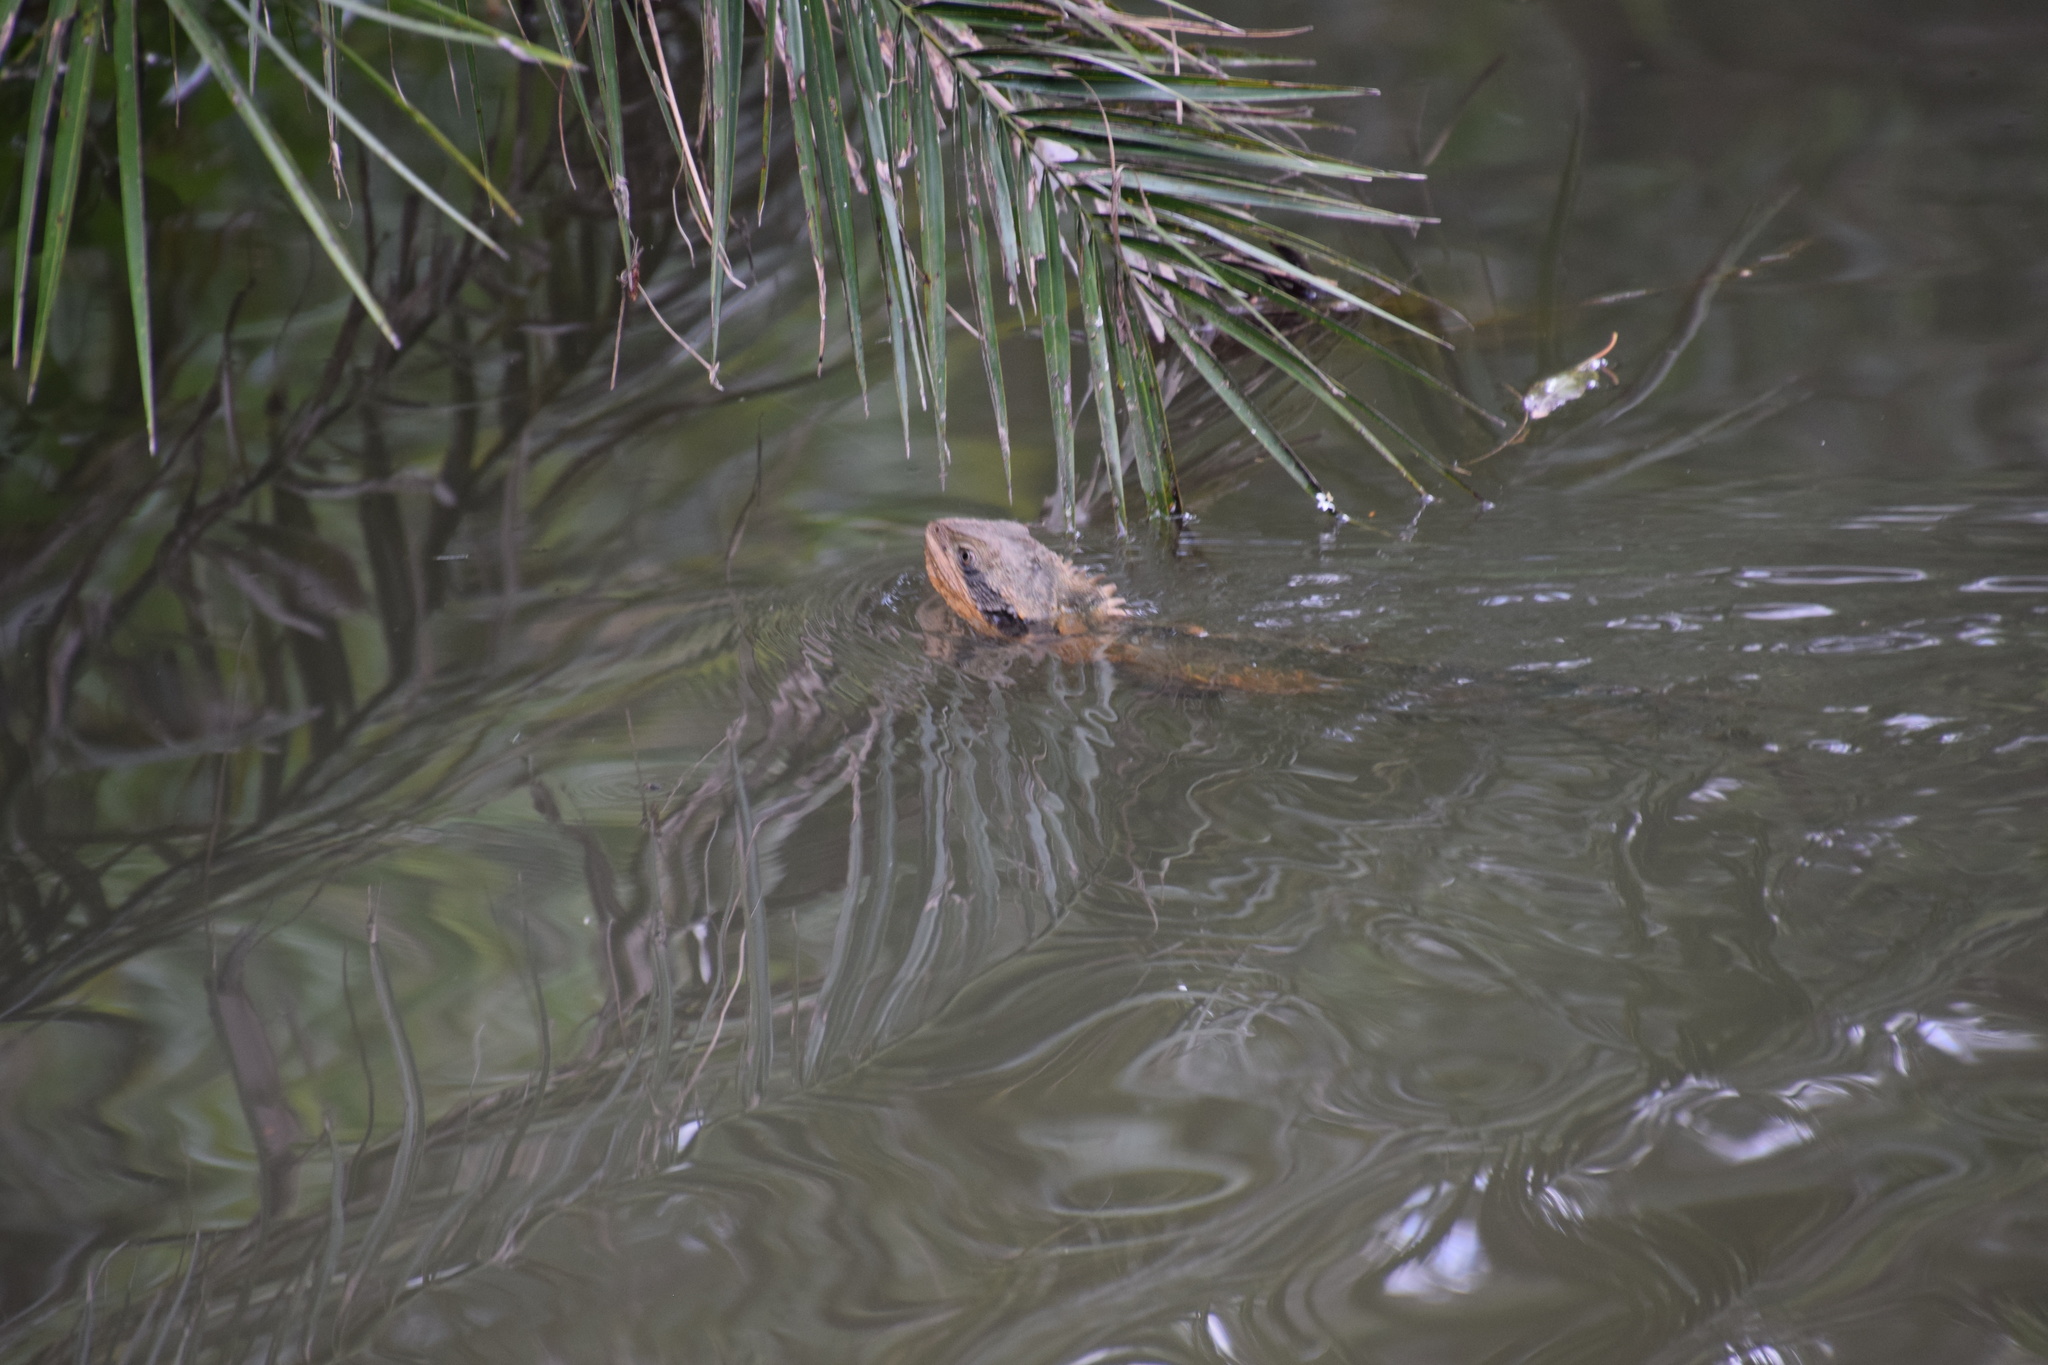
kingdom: Animalia
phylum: Chordata
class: Squamata
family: Agamidae
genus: Intellagama
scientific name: Intellagama lesueurii
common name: Eastern water dragon
